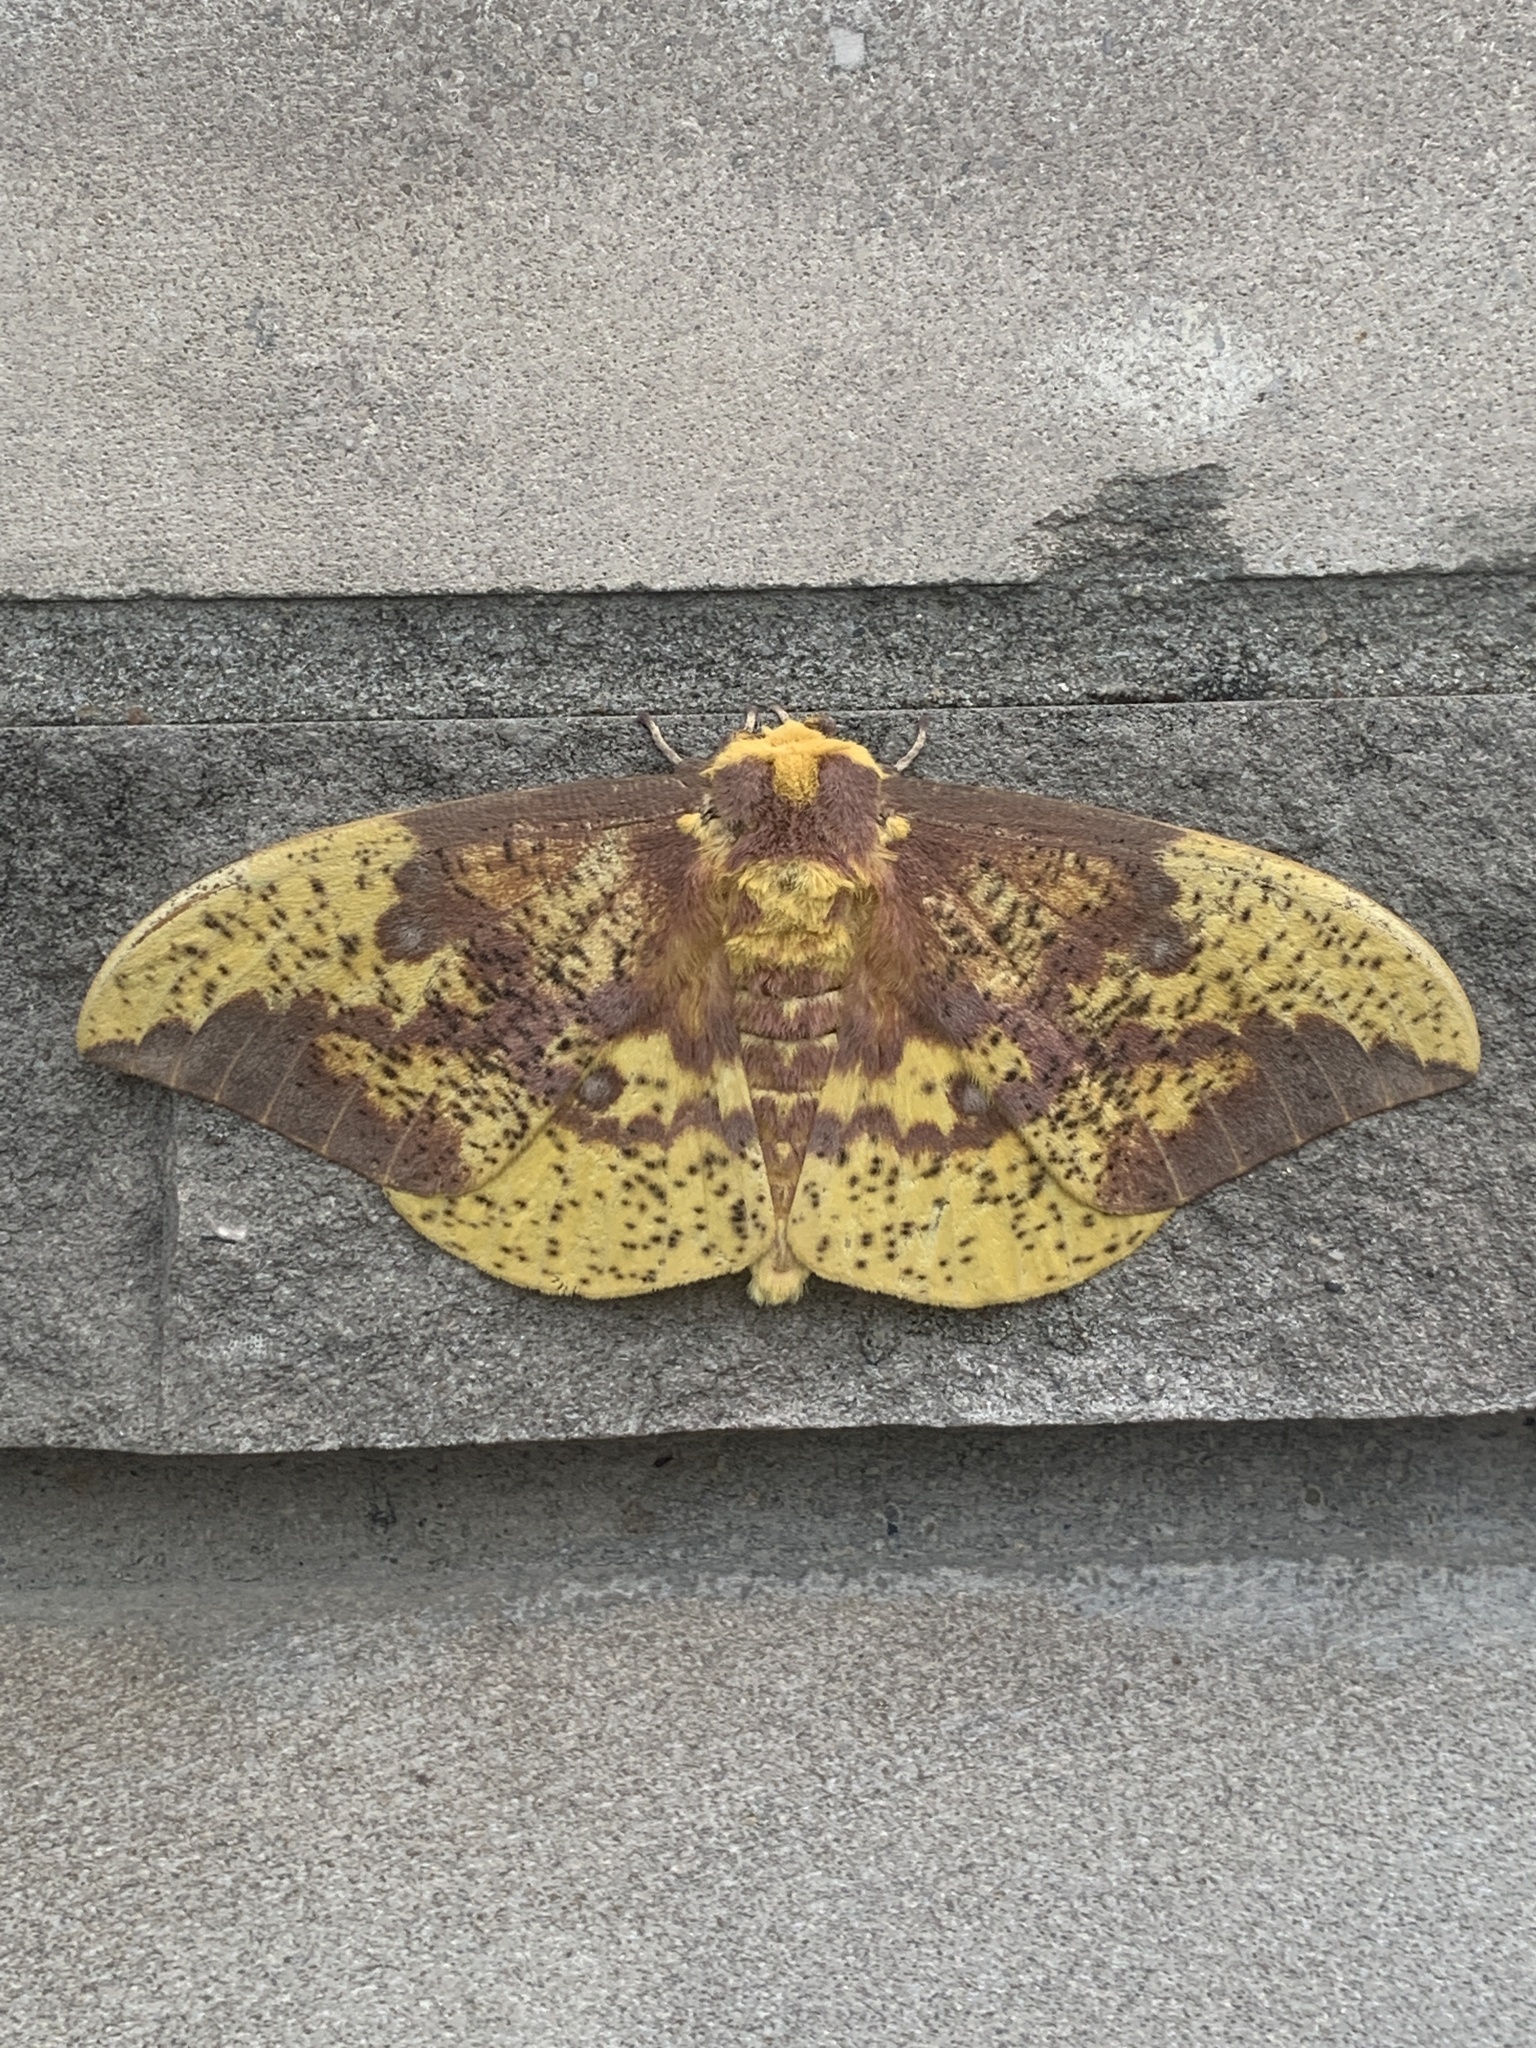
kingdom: Animalia
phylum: Arthropoda
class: Insecta
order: Lepidoptera
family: Saturniidae
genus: Eacles
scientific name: Eacles imperialis
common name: Imperial moth
